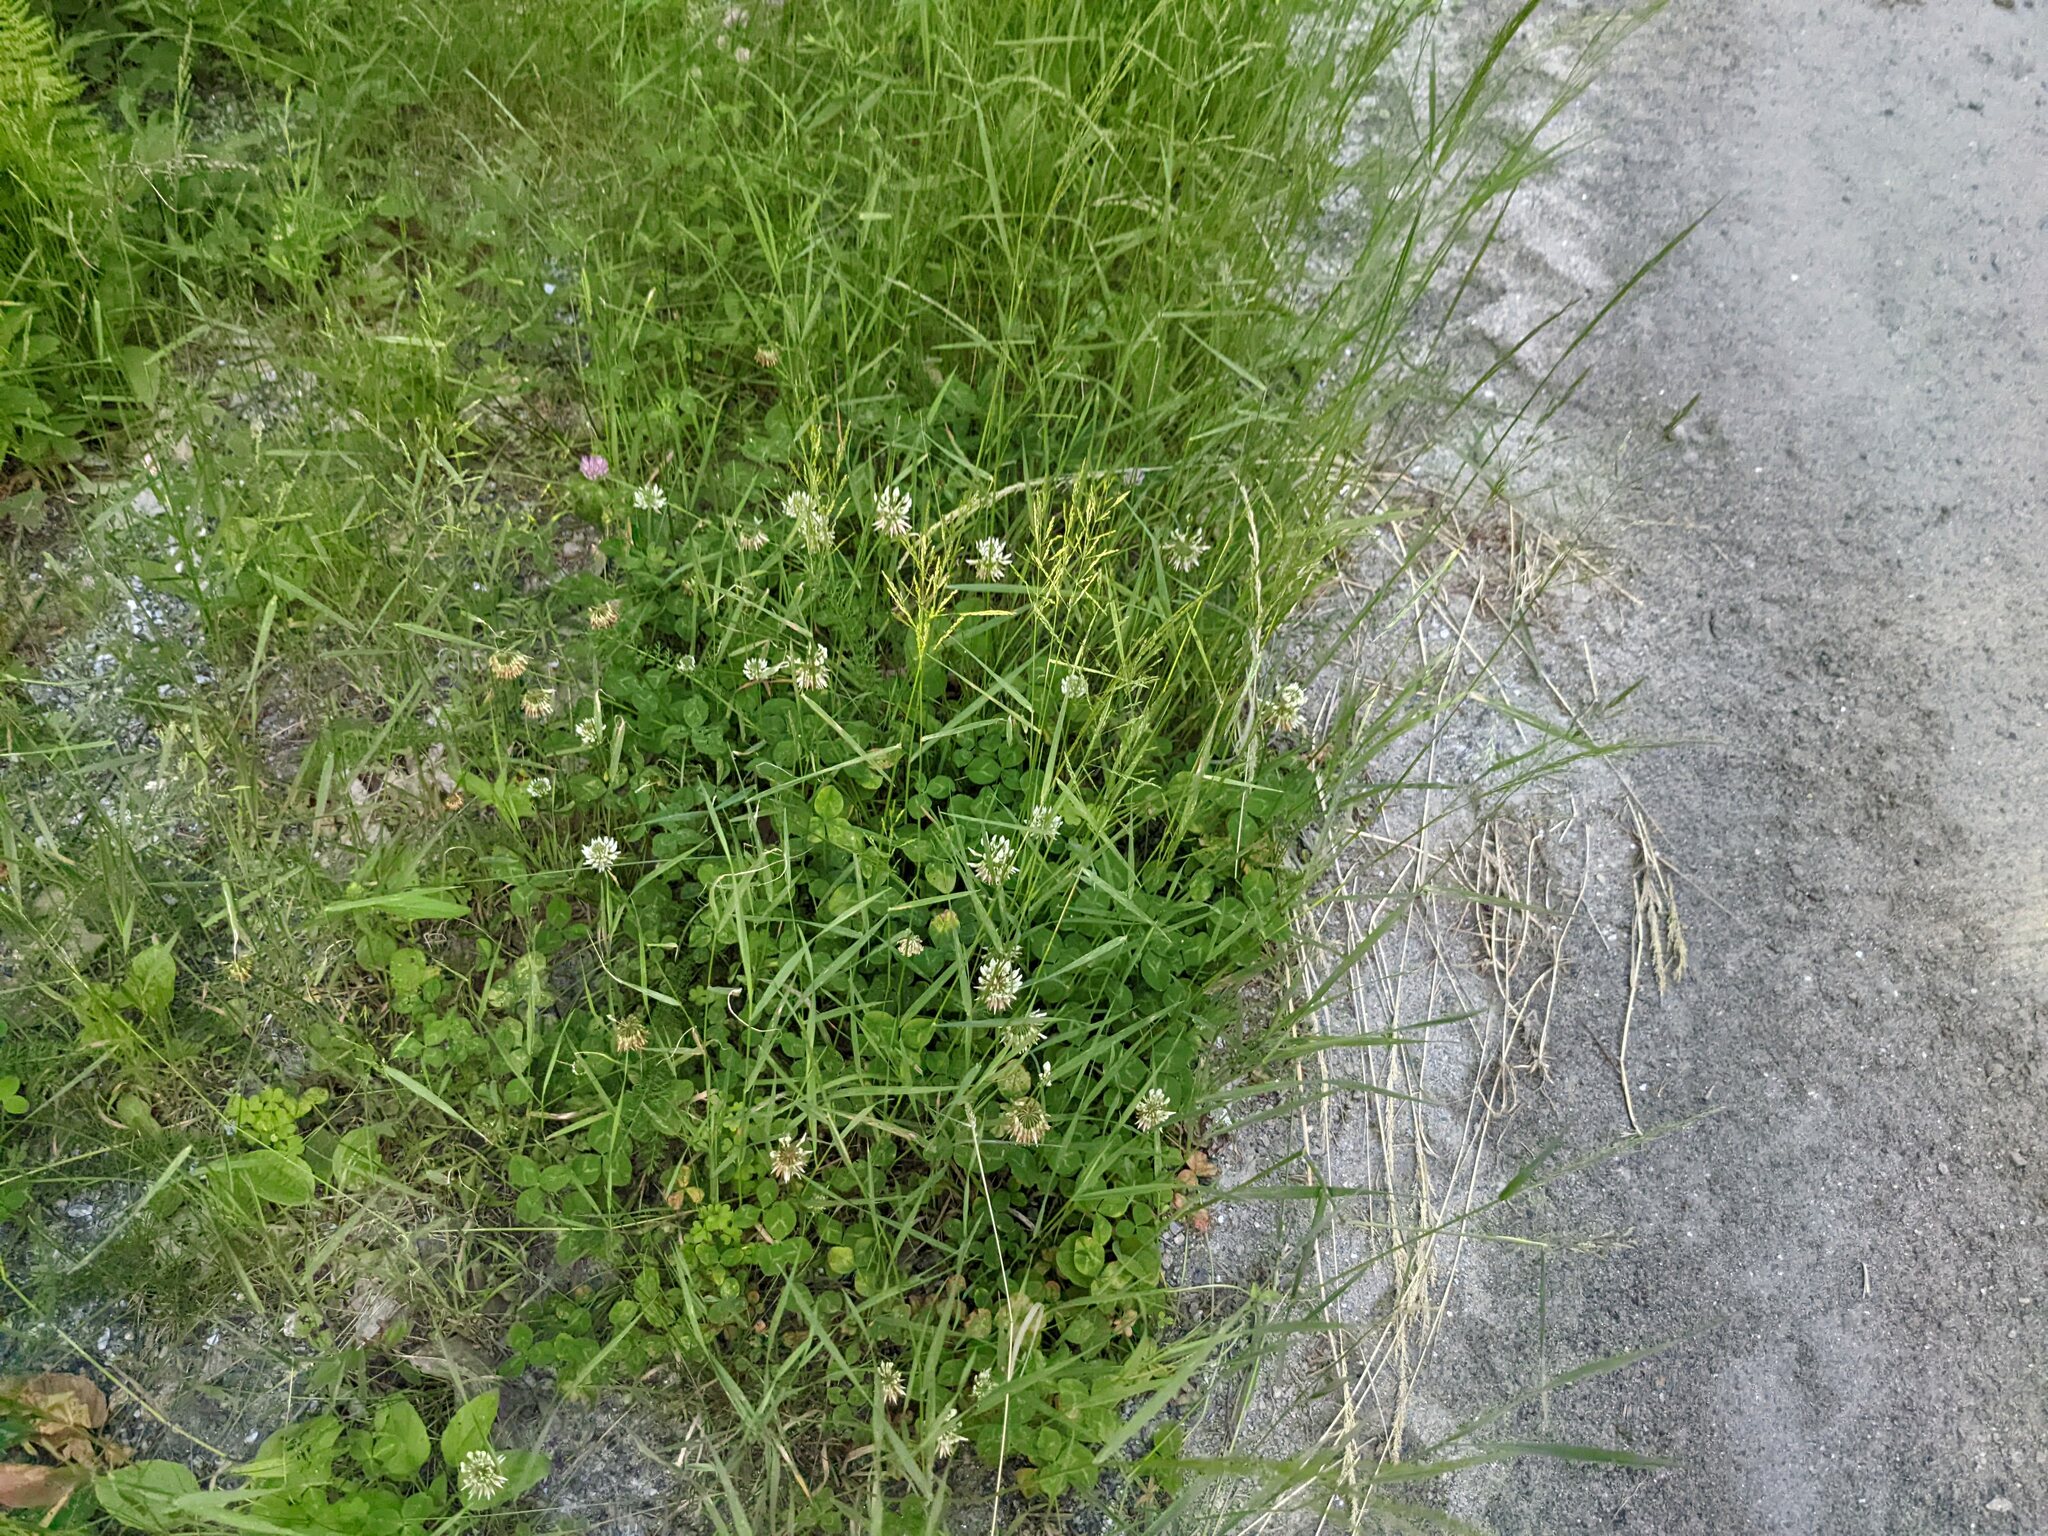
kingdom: Plantae
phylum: Tracheophyta
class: Magnoliopsida
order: Fabales
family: Fabaceae
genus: Trifolium
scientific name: Trifolium repens
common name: White clover
